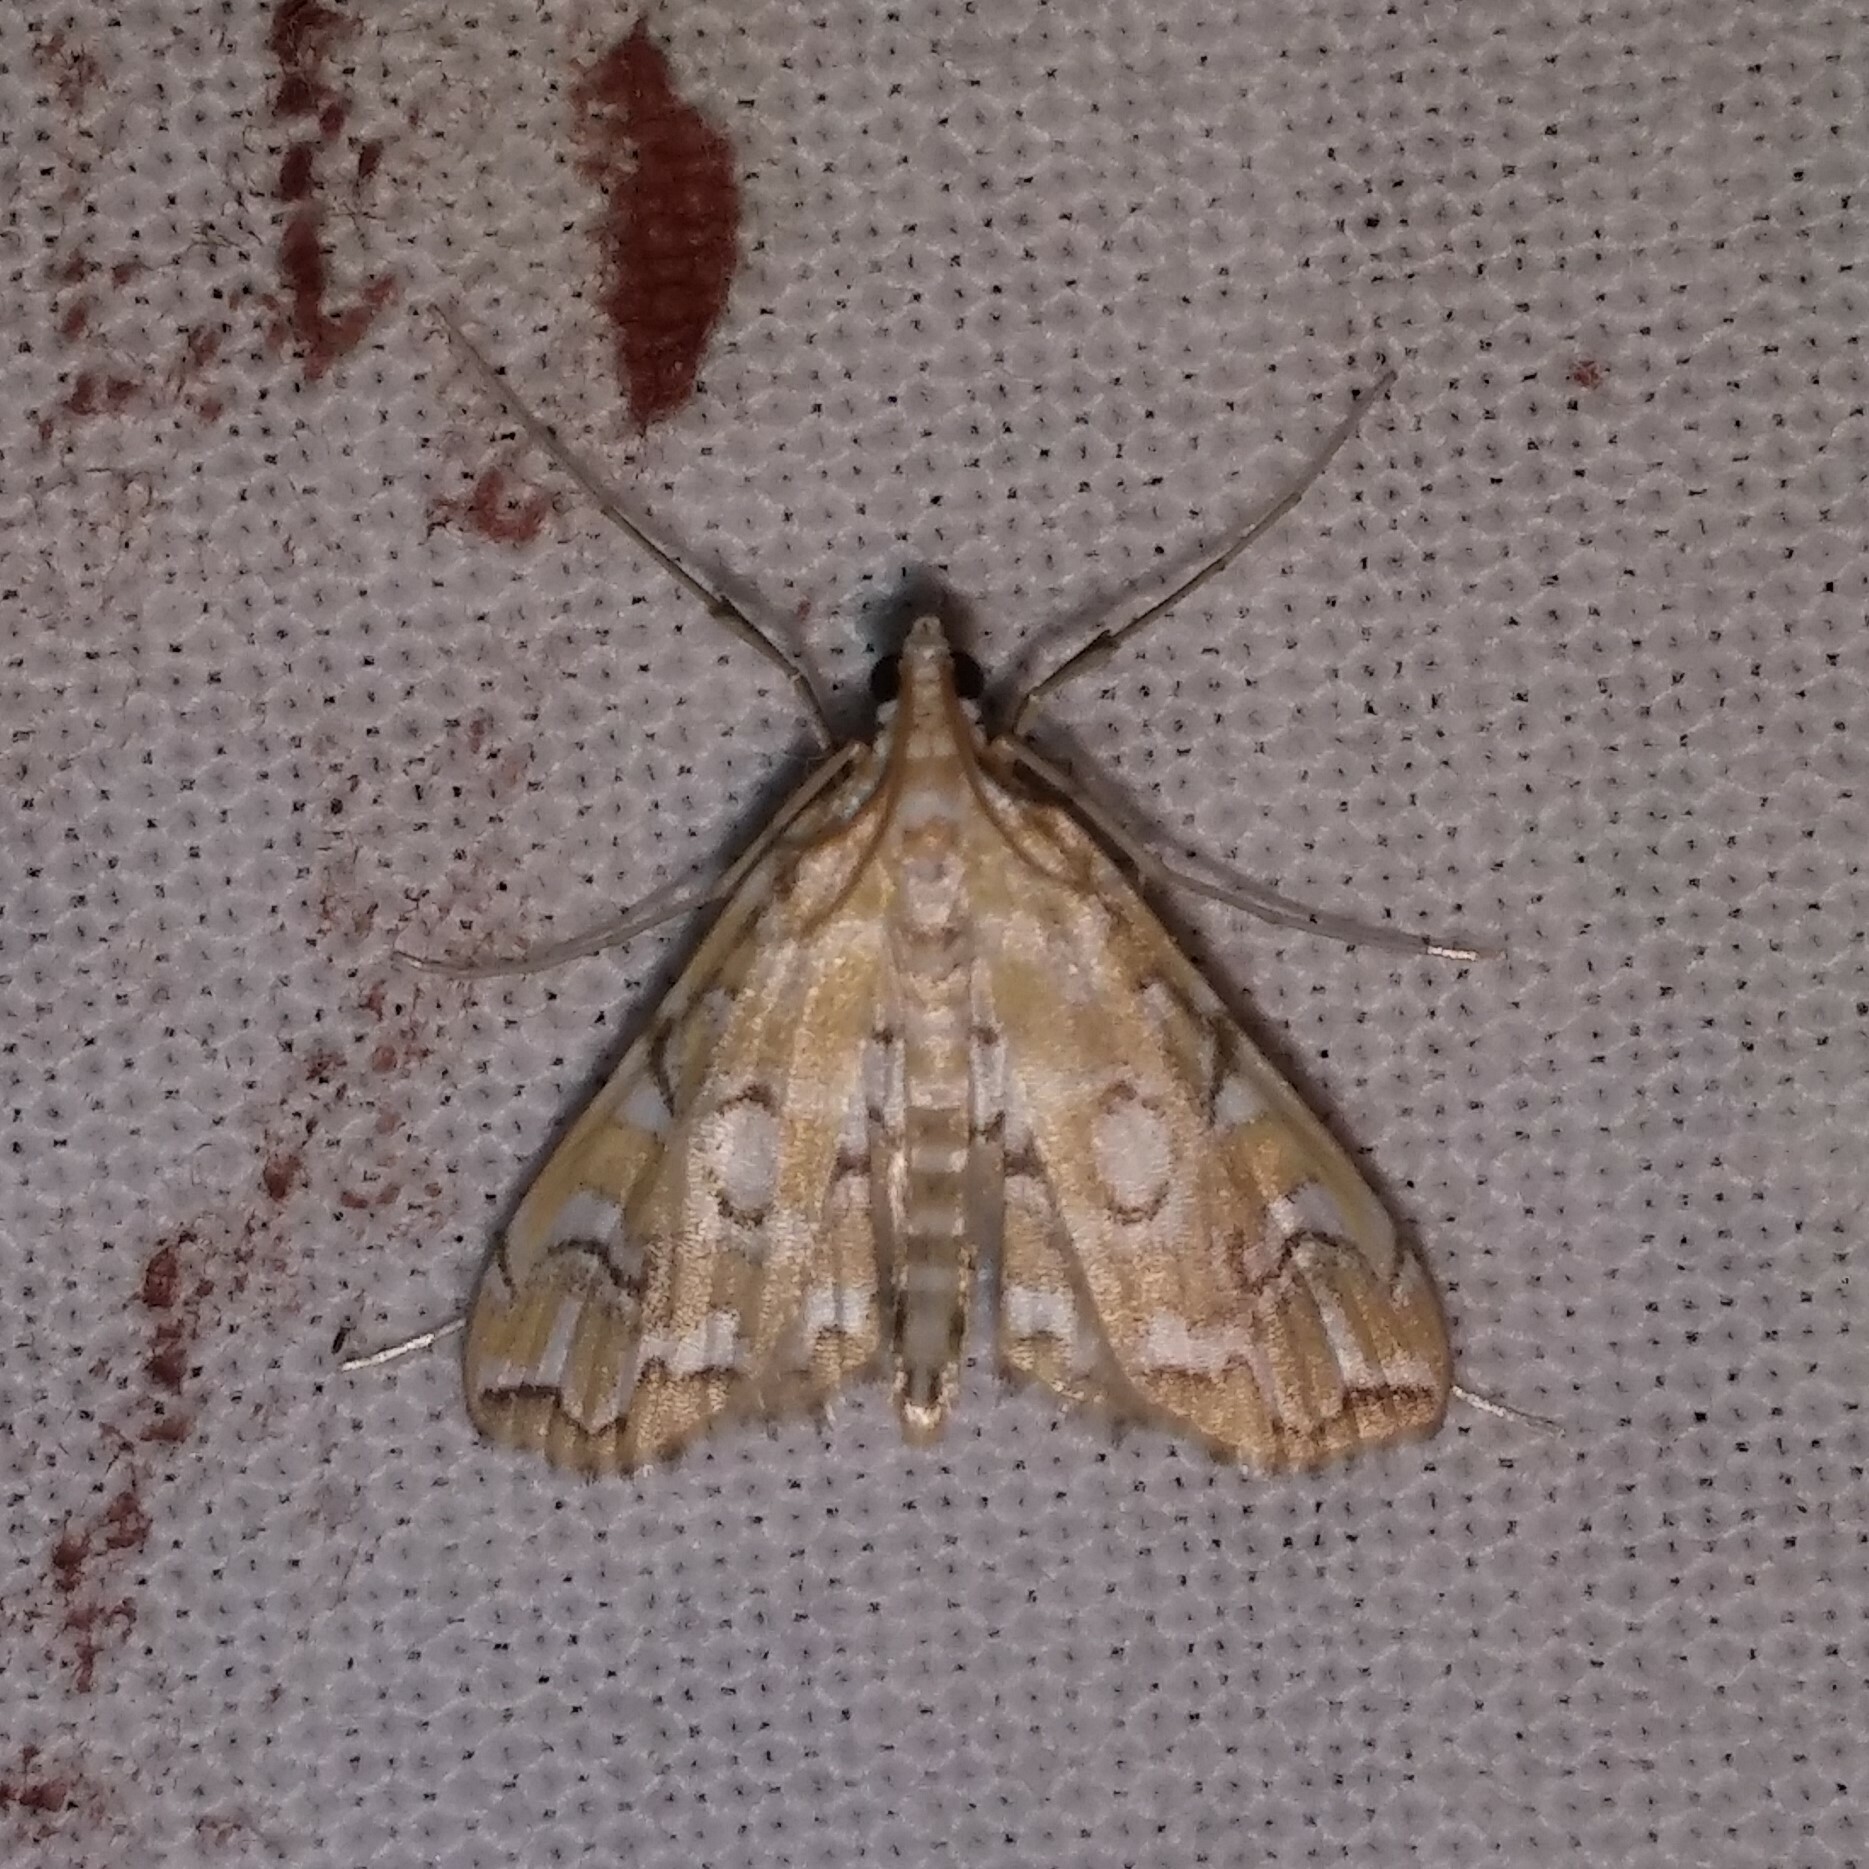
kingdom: Animalia
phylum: Arthropoda
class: Insecta
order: Lepidoptera
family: Crambidae
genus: Elophila
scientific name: Elophila icciusalis
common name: Pondside pyralid moth
